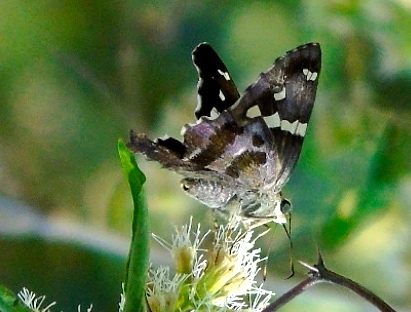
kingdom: Animalia
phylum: Arthropoda
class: Insecta
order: Lepidoptera
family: Hesperiidae
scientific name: Hesperiidae
